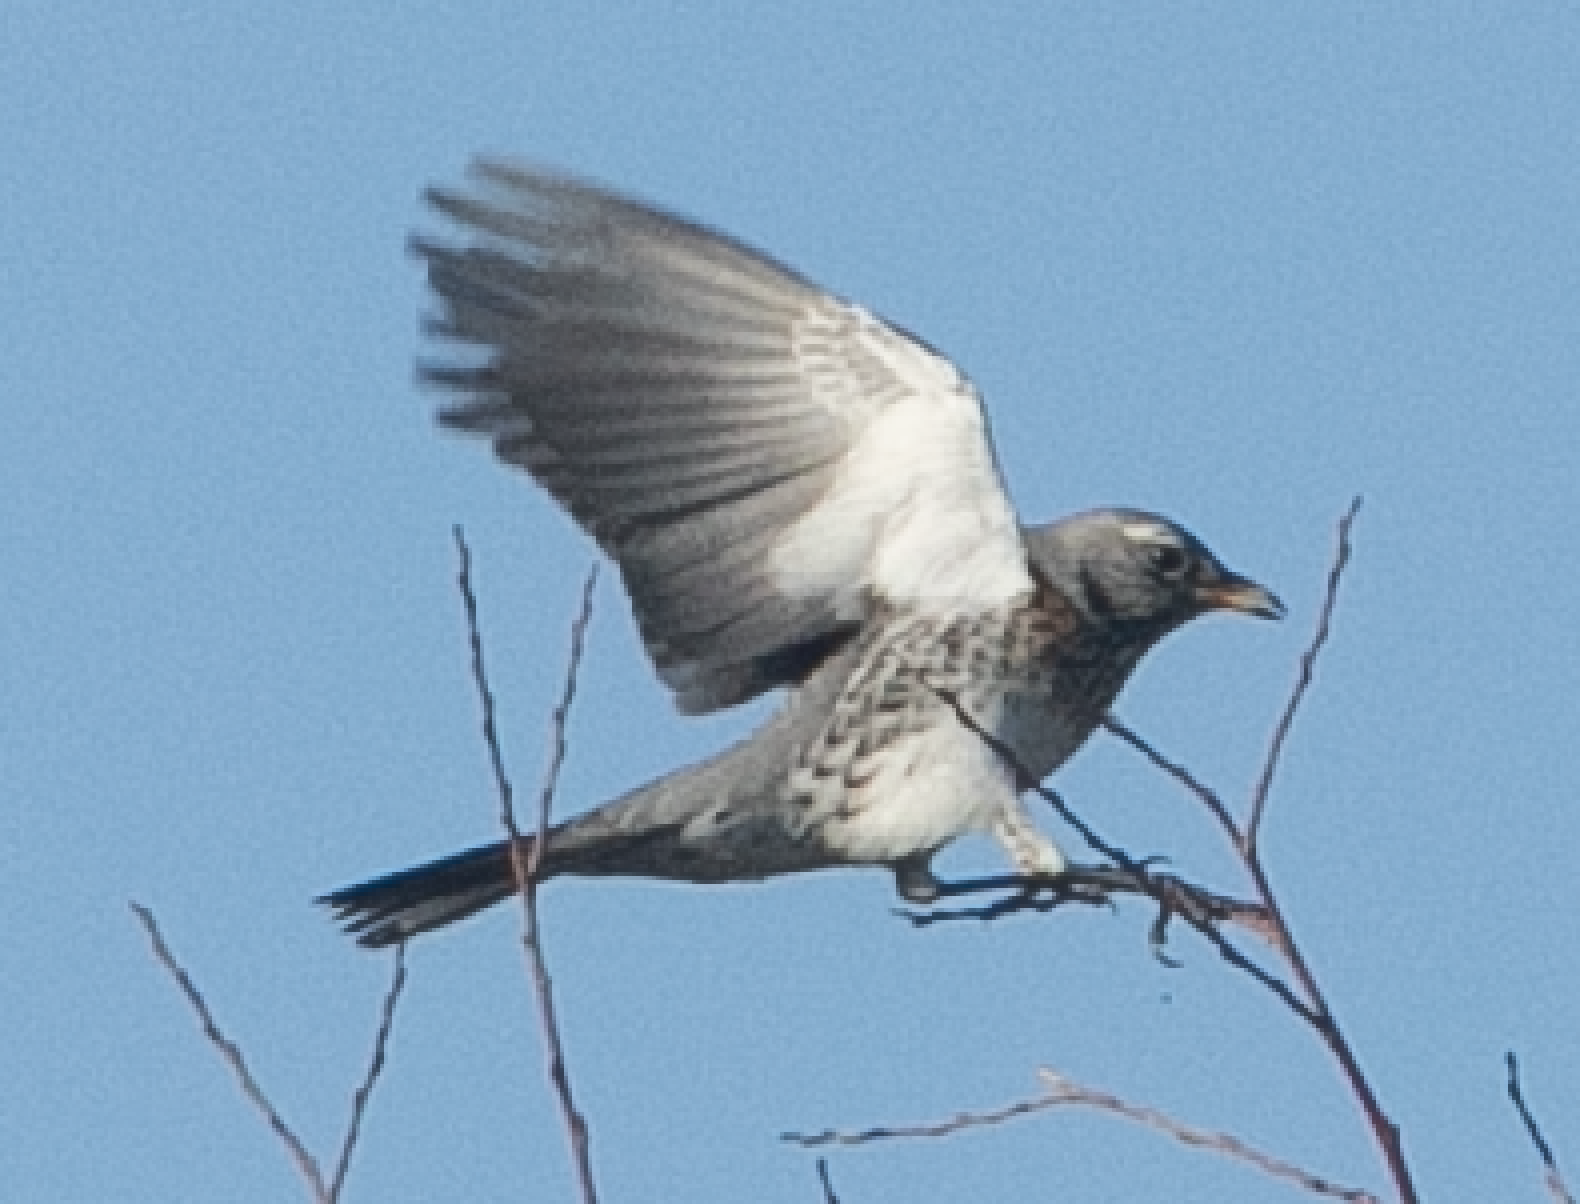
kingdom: Animalia
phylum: Chordata
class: Aves
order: Passeriformes
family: Turdidae
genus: Turdus
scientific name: Turdus pilaris
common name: Fieldfare
